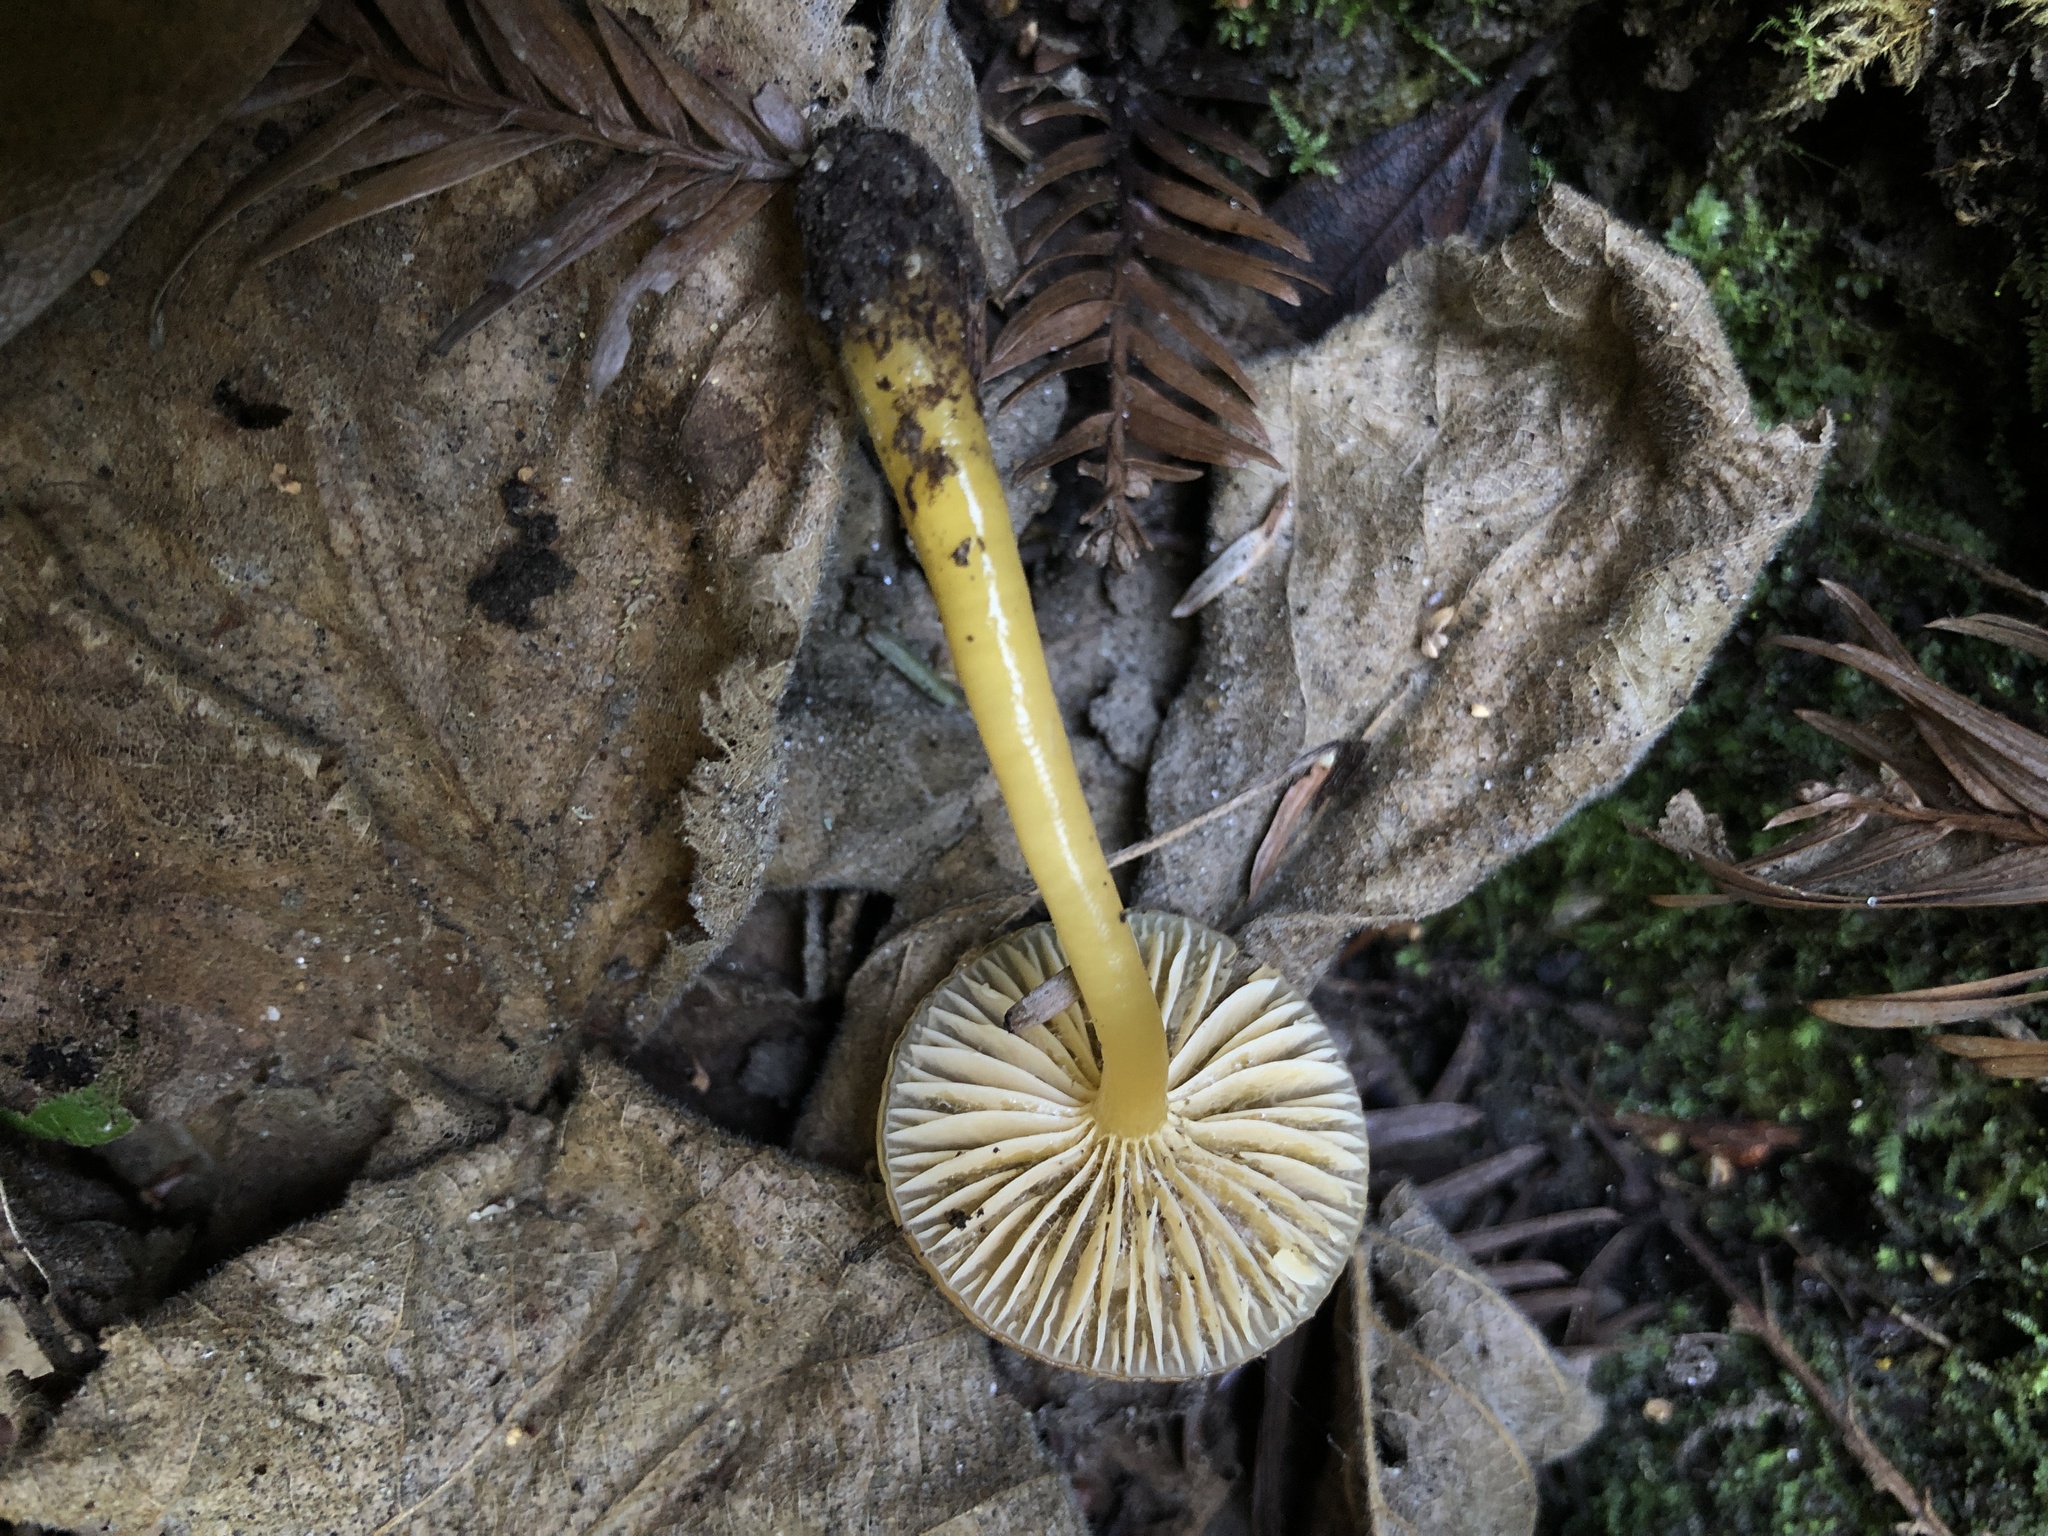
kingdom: Fungi
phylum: Basidiomycota
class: Agaricomycetes
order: Agaricales
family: Hygrophoraceae
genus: Gliophorus
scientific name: Gliophorus psittacinus
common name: Parrot wax-cap
